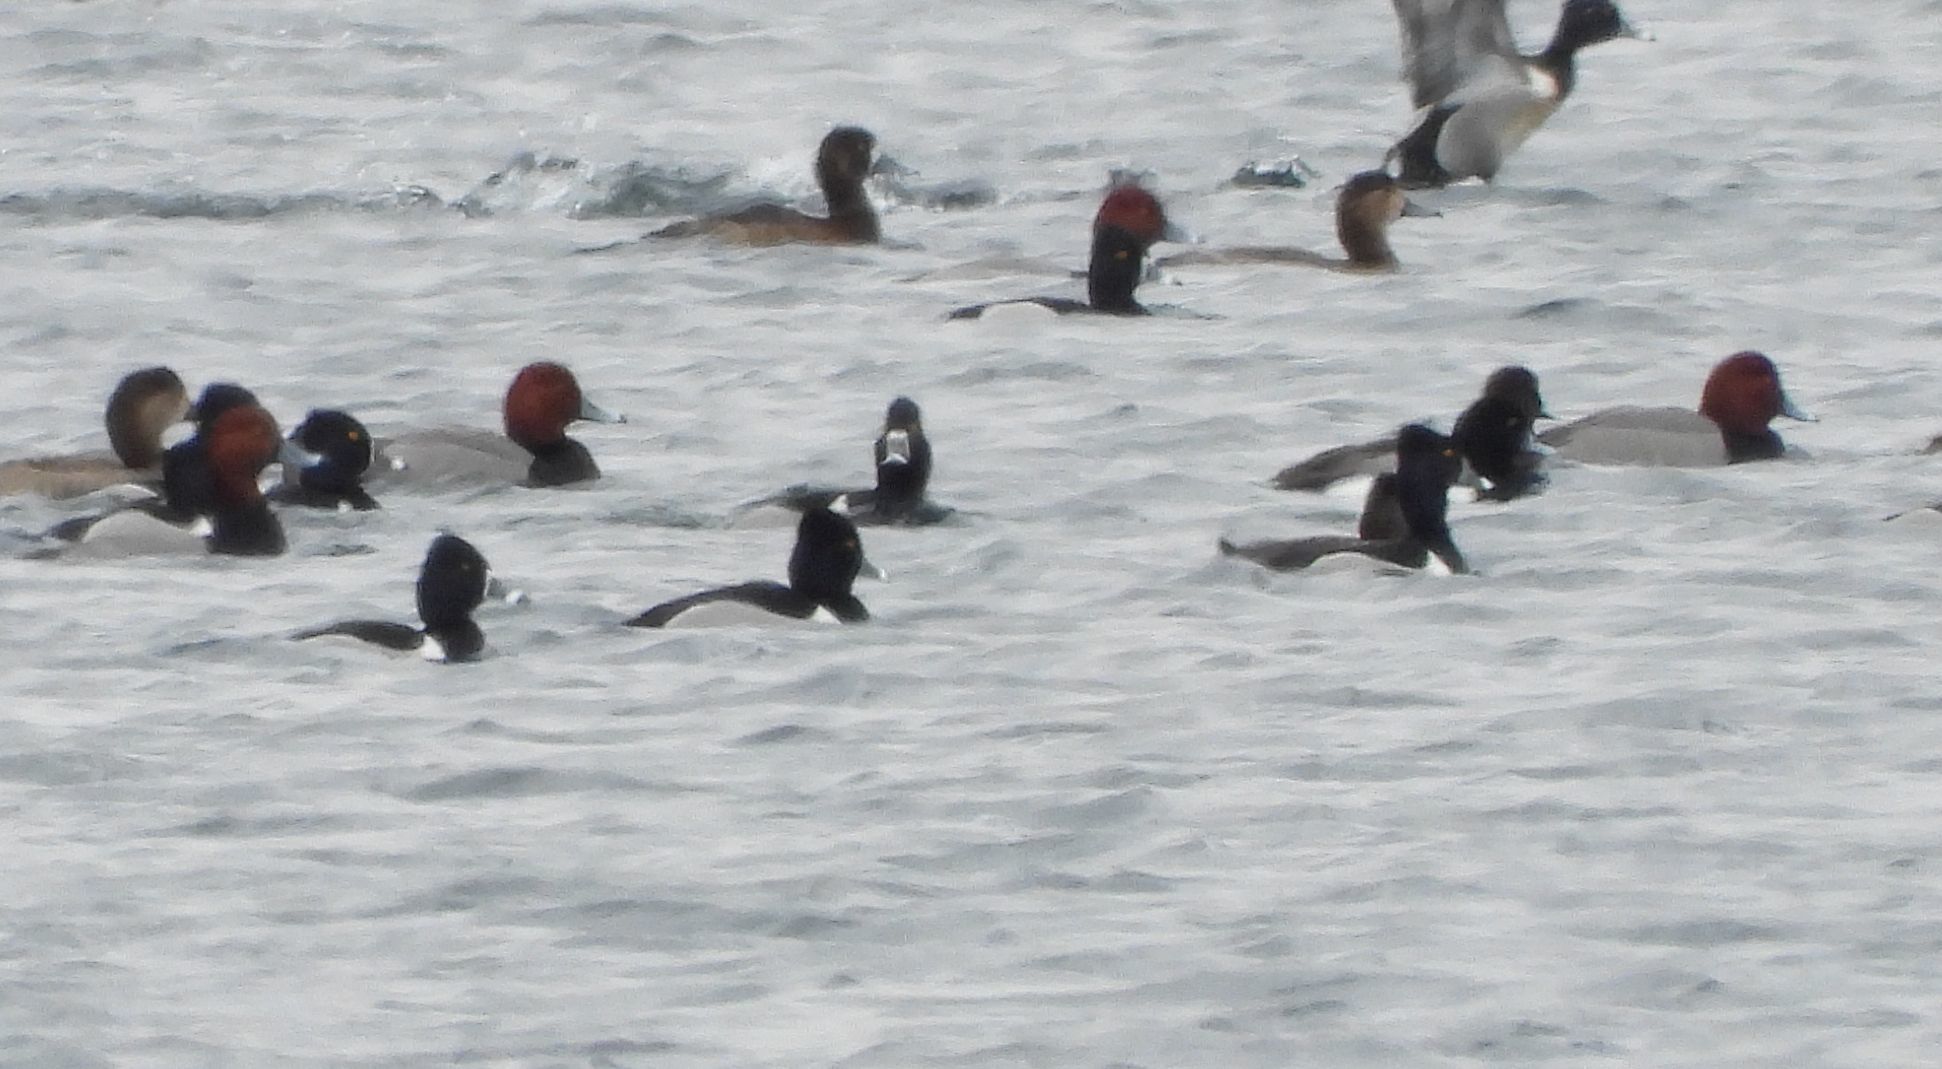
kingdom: Animalia
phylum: Chordata
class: Aves
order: Anseriformes
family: Anatidae
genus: Aythya
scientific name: Aythya americana
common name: Redhead
